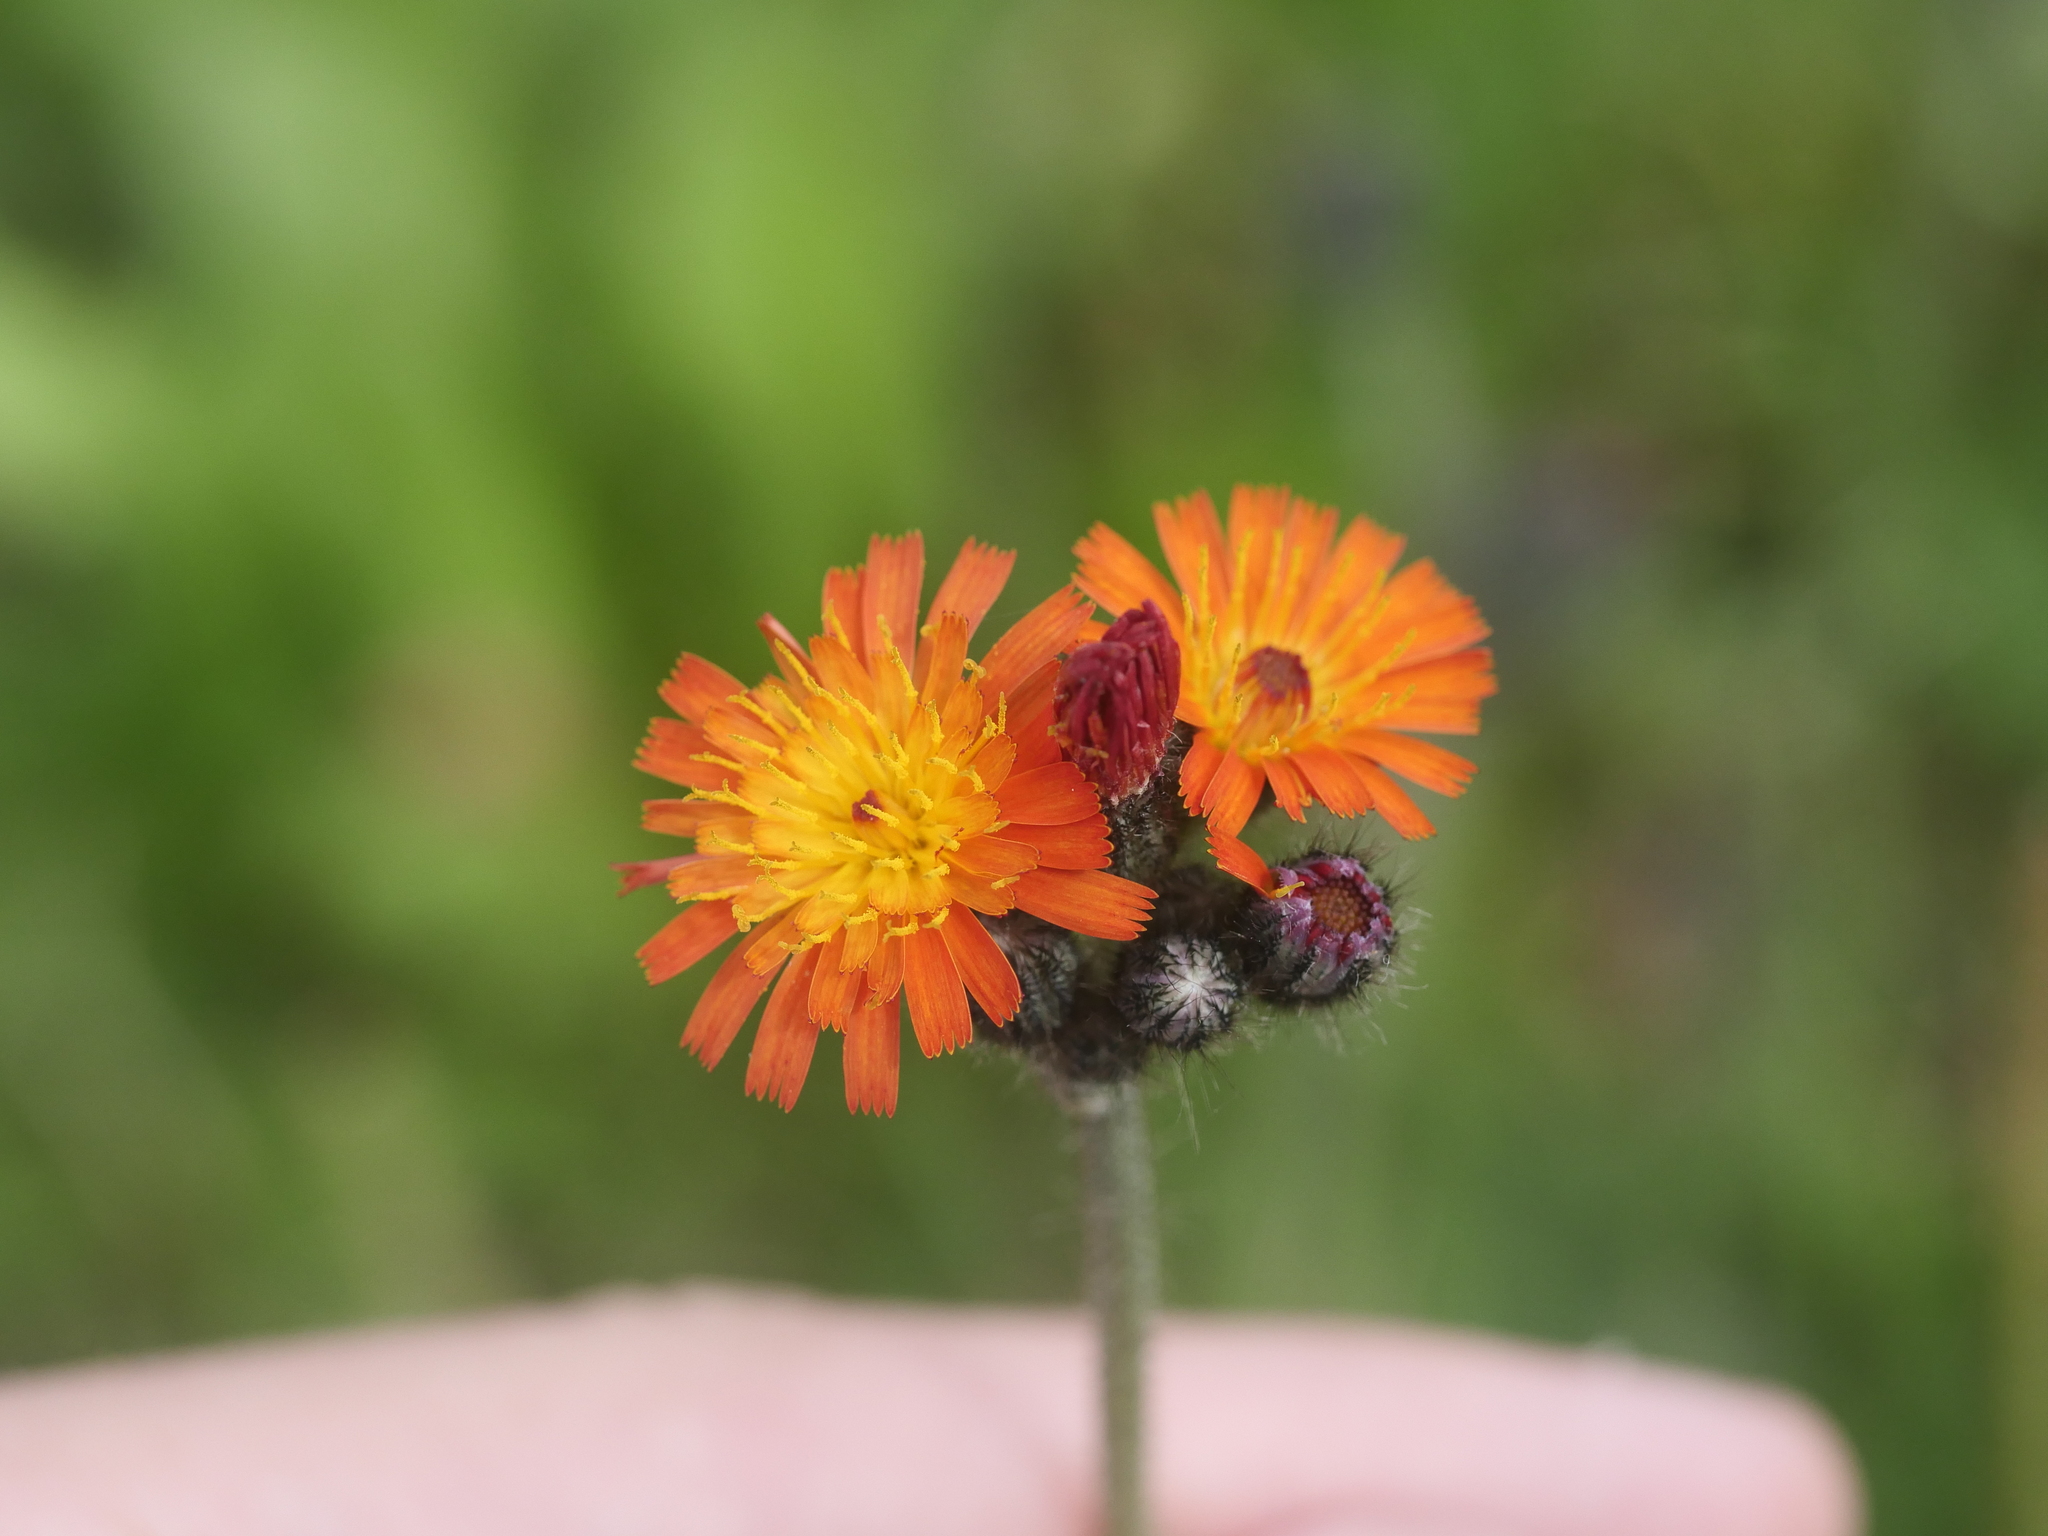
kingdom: Plantae
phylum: Tracheophyta
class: Magnoliopsida
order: Asterales
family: Asteraceae
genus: Pilosella
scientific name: Pilosella aurantiaca
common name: Fox-and-cubs
